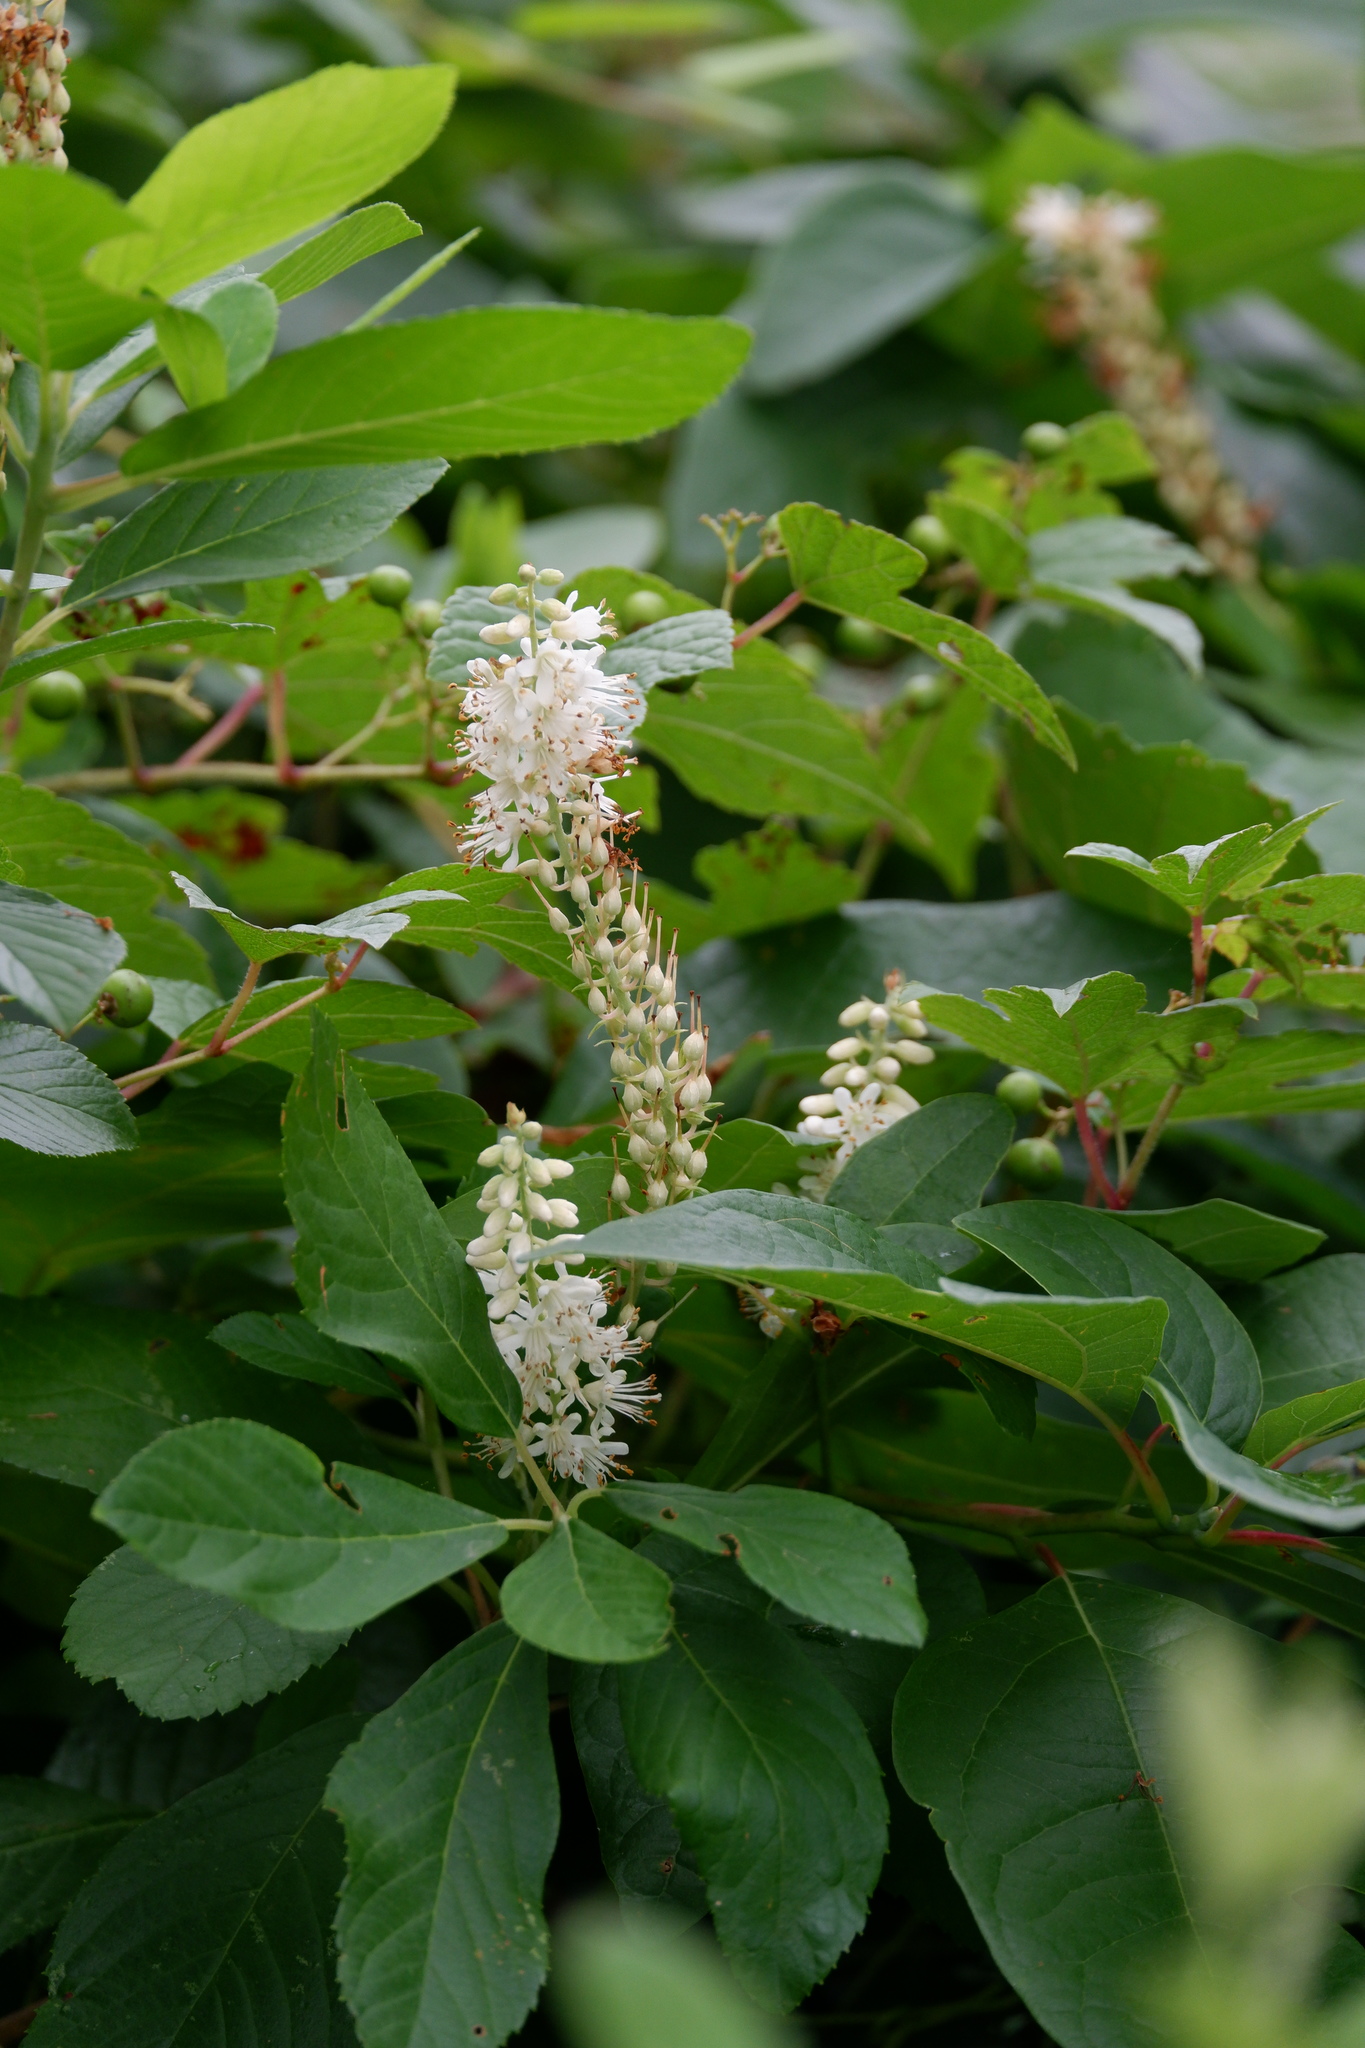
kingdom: Plantae
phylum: Tracheophyta
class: Magnoliopsida
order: Ericales
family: Clethraceae
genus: Clethra
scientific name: Clethra alnifolia
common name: Sweet pepperbush
